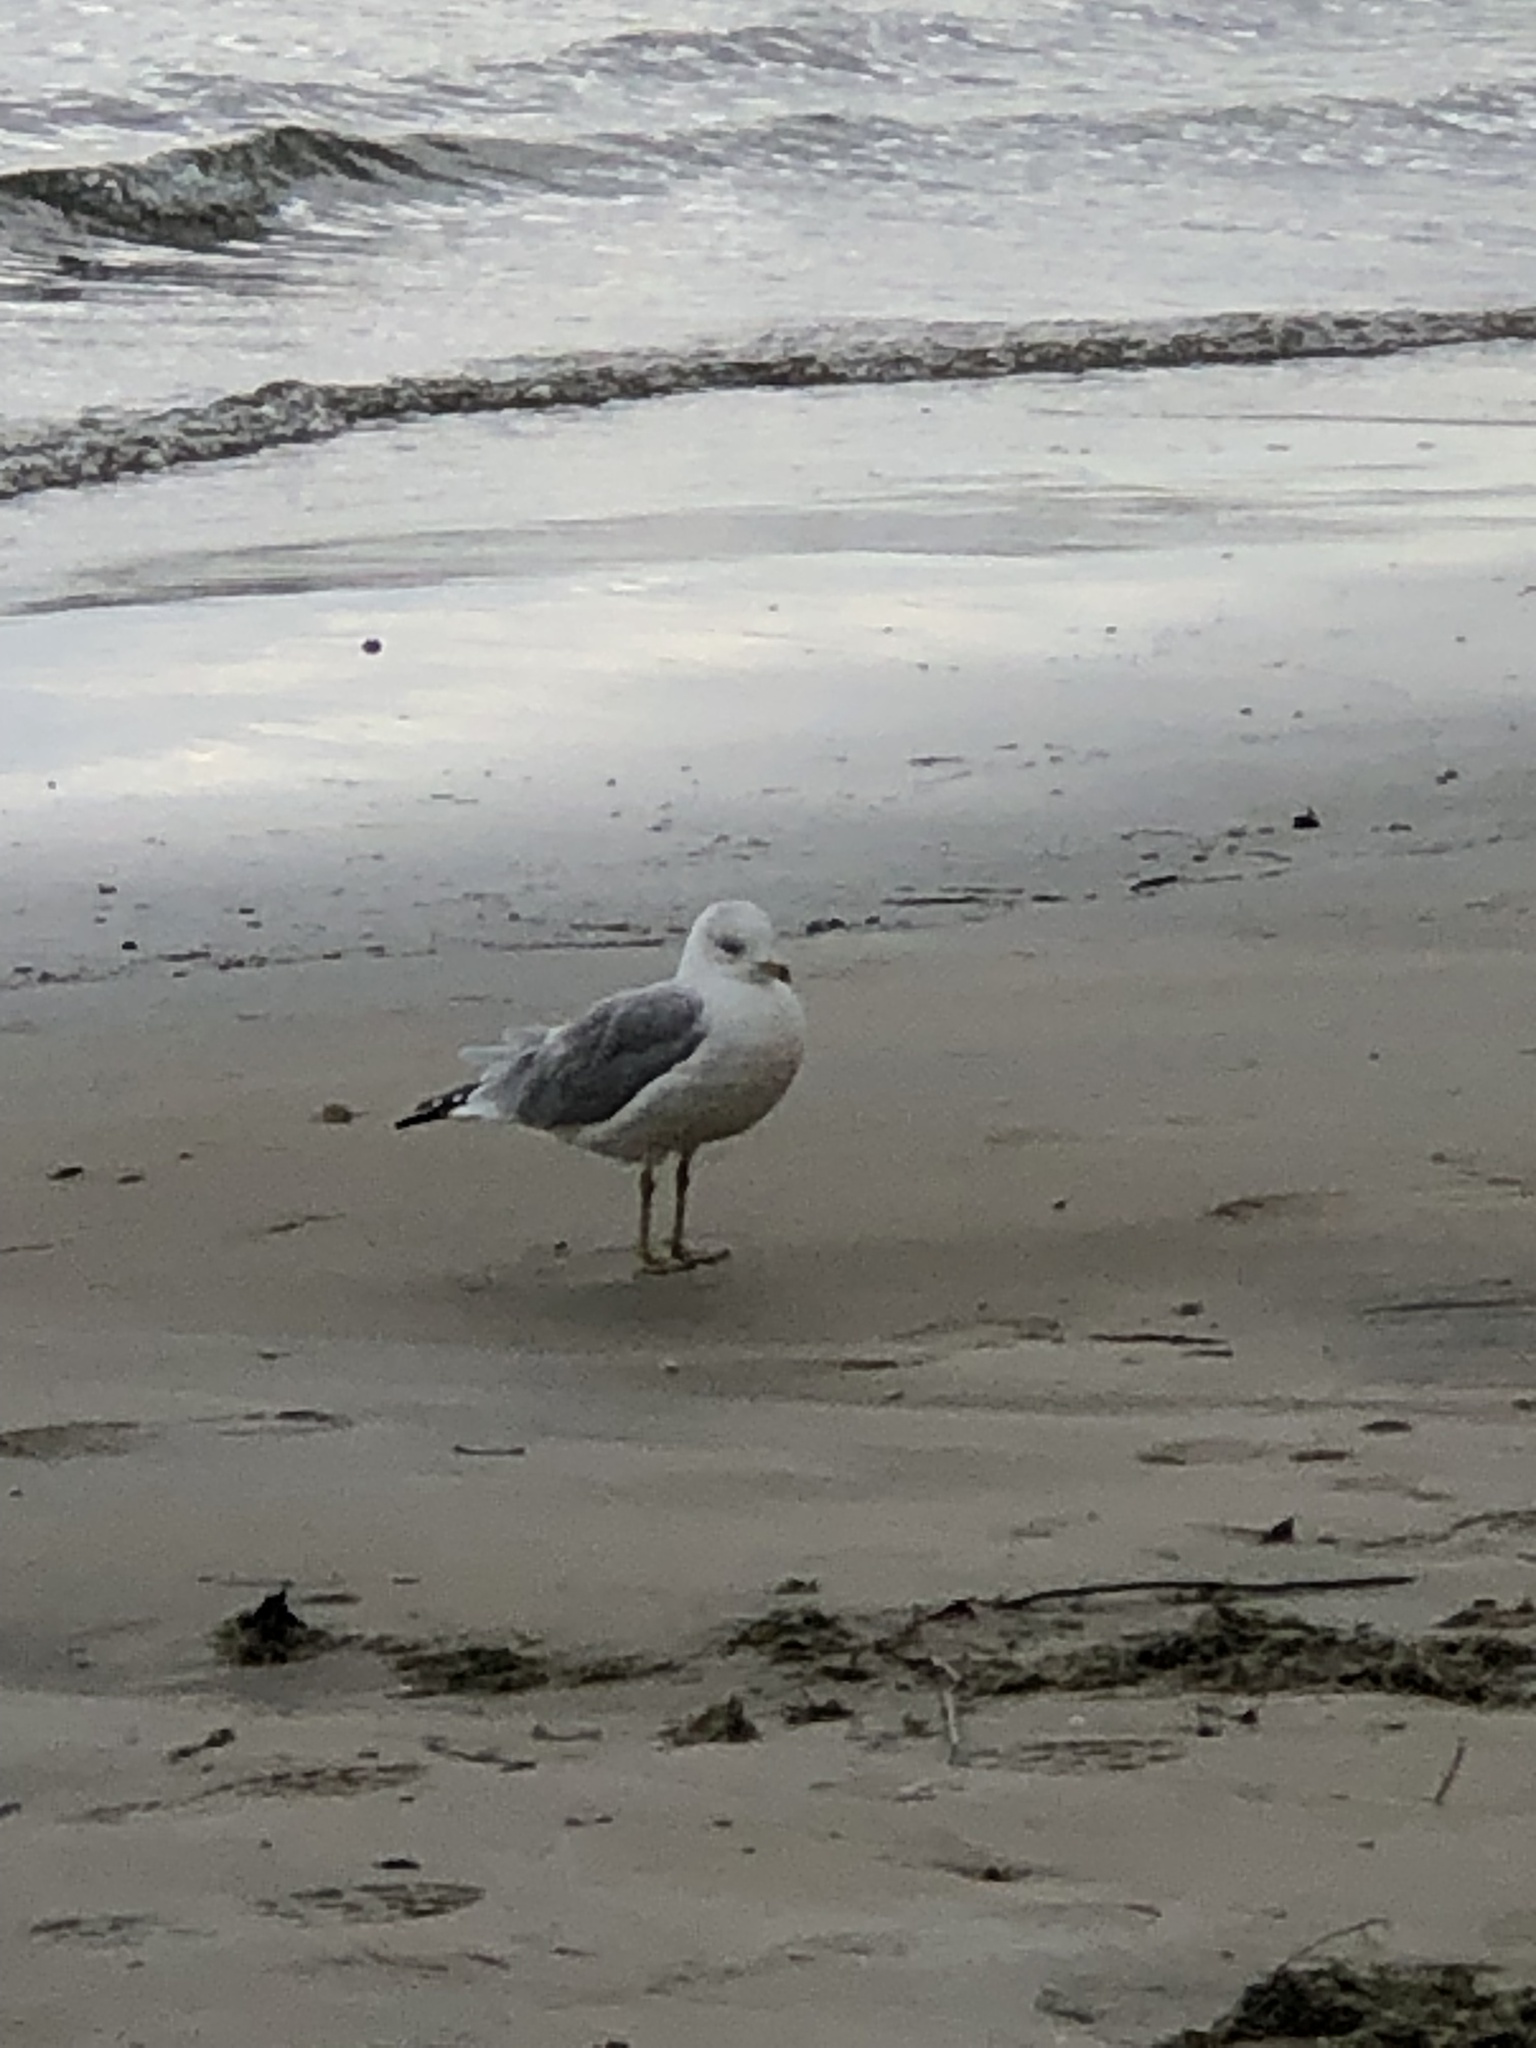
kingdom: Animalia
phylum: Chordata
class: Aves
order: Charadriiformes
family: Laridae
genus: Larus
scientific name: Larus delawarensis
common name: Ring-billed gull
